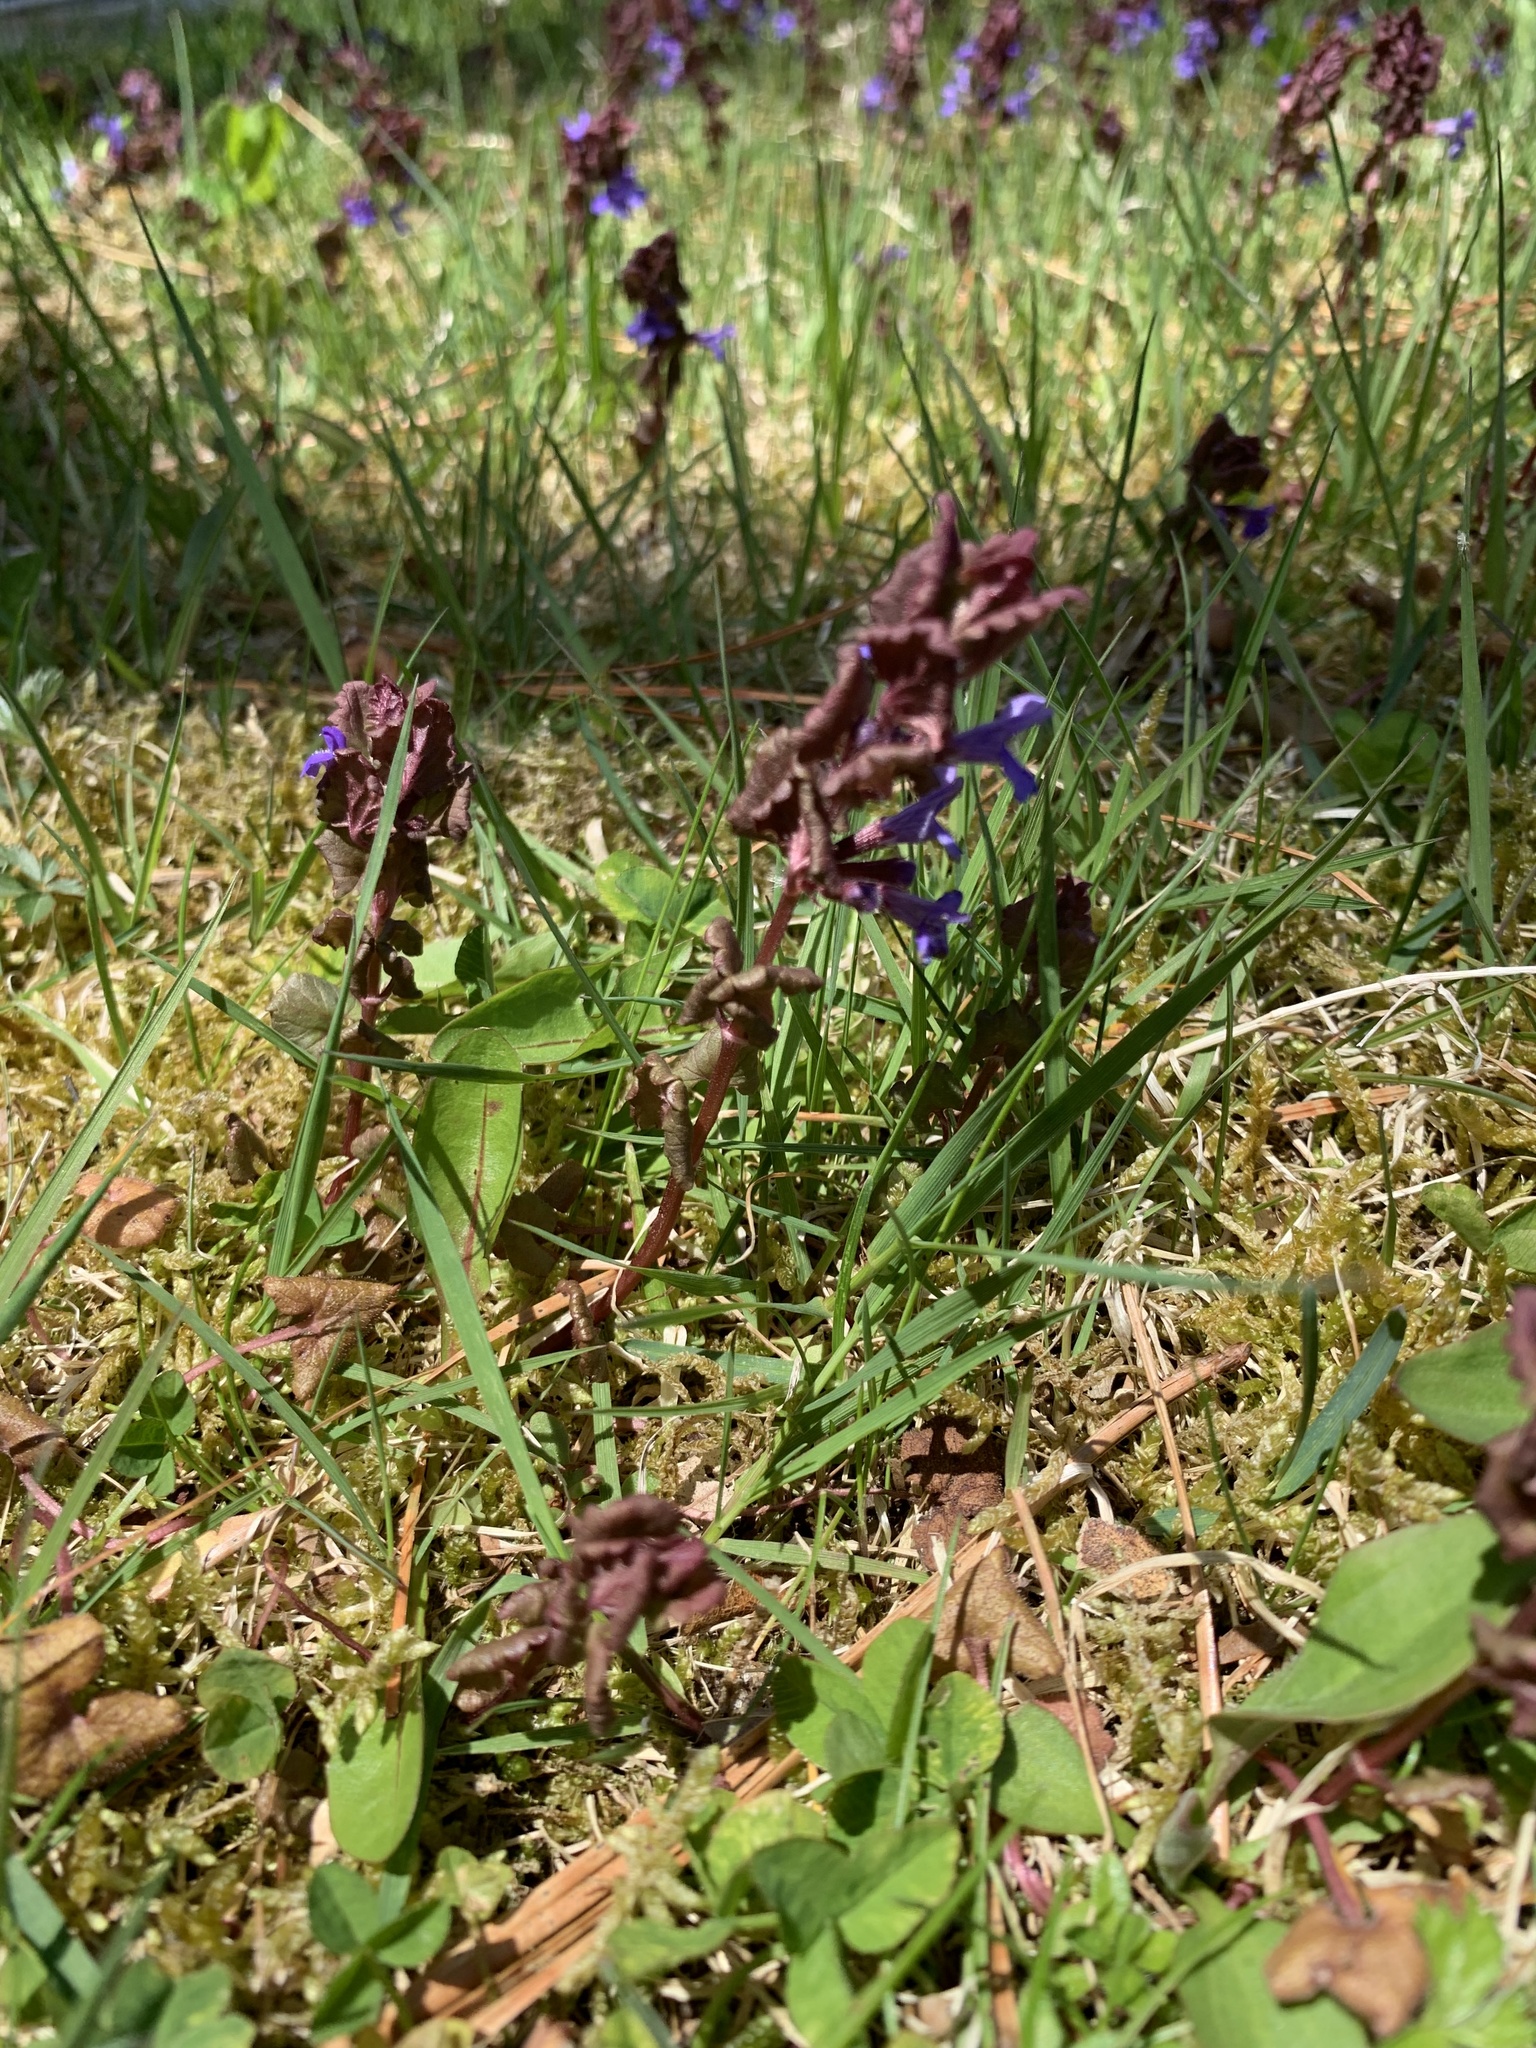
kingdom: Plantae
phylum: Tracheophyta
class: Magnoliopsida
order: Lamiales
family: Lamiaceae
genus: Glechoma
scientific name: Glechoma hederacea
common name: Ground ivy
